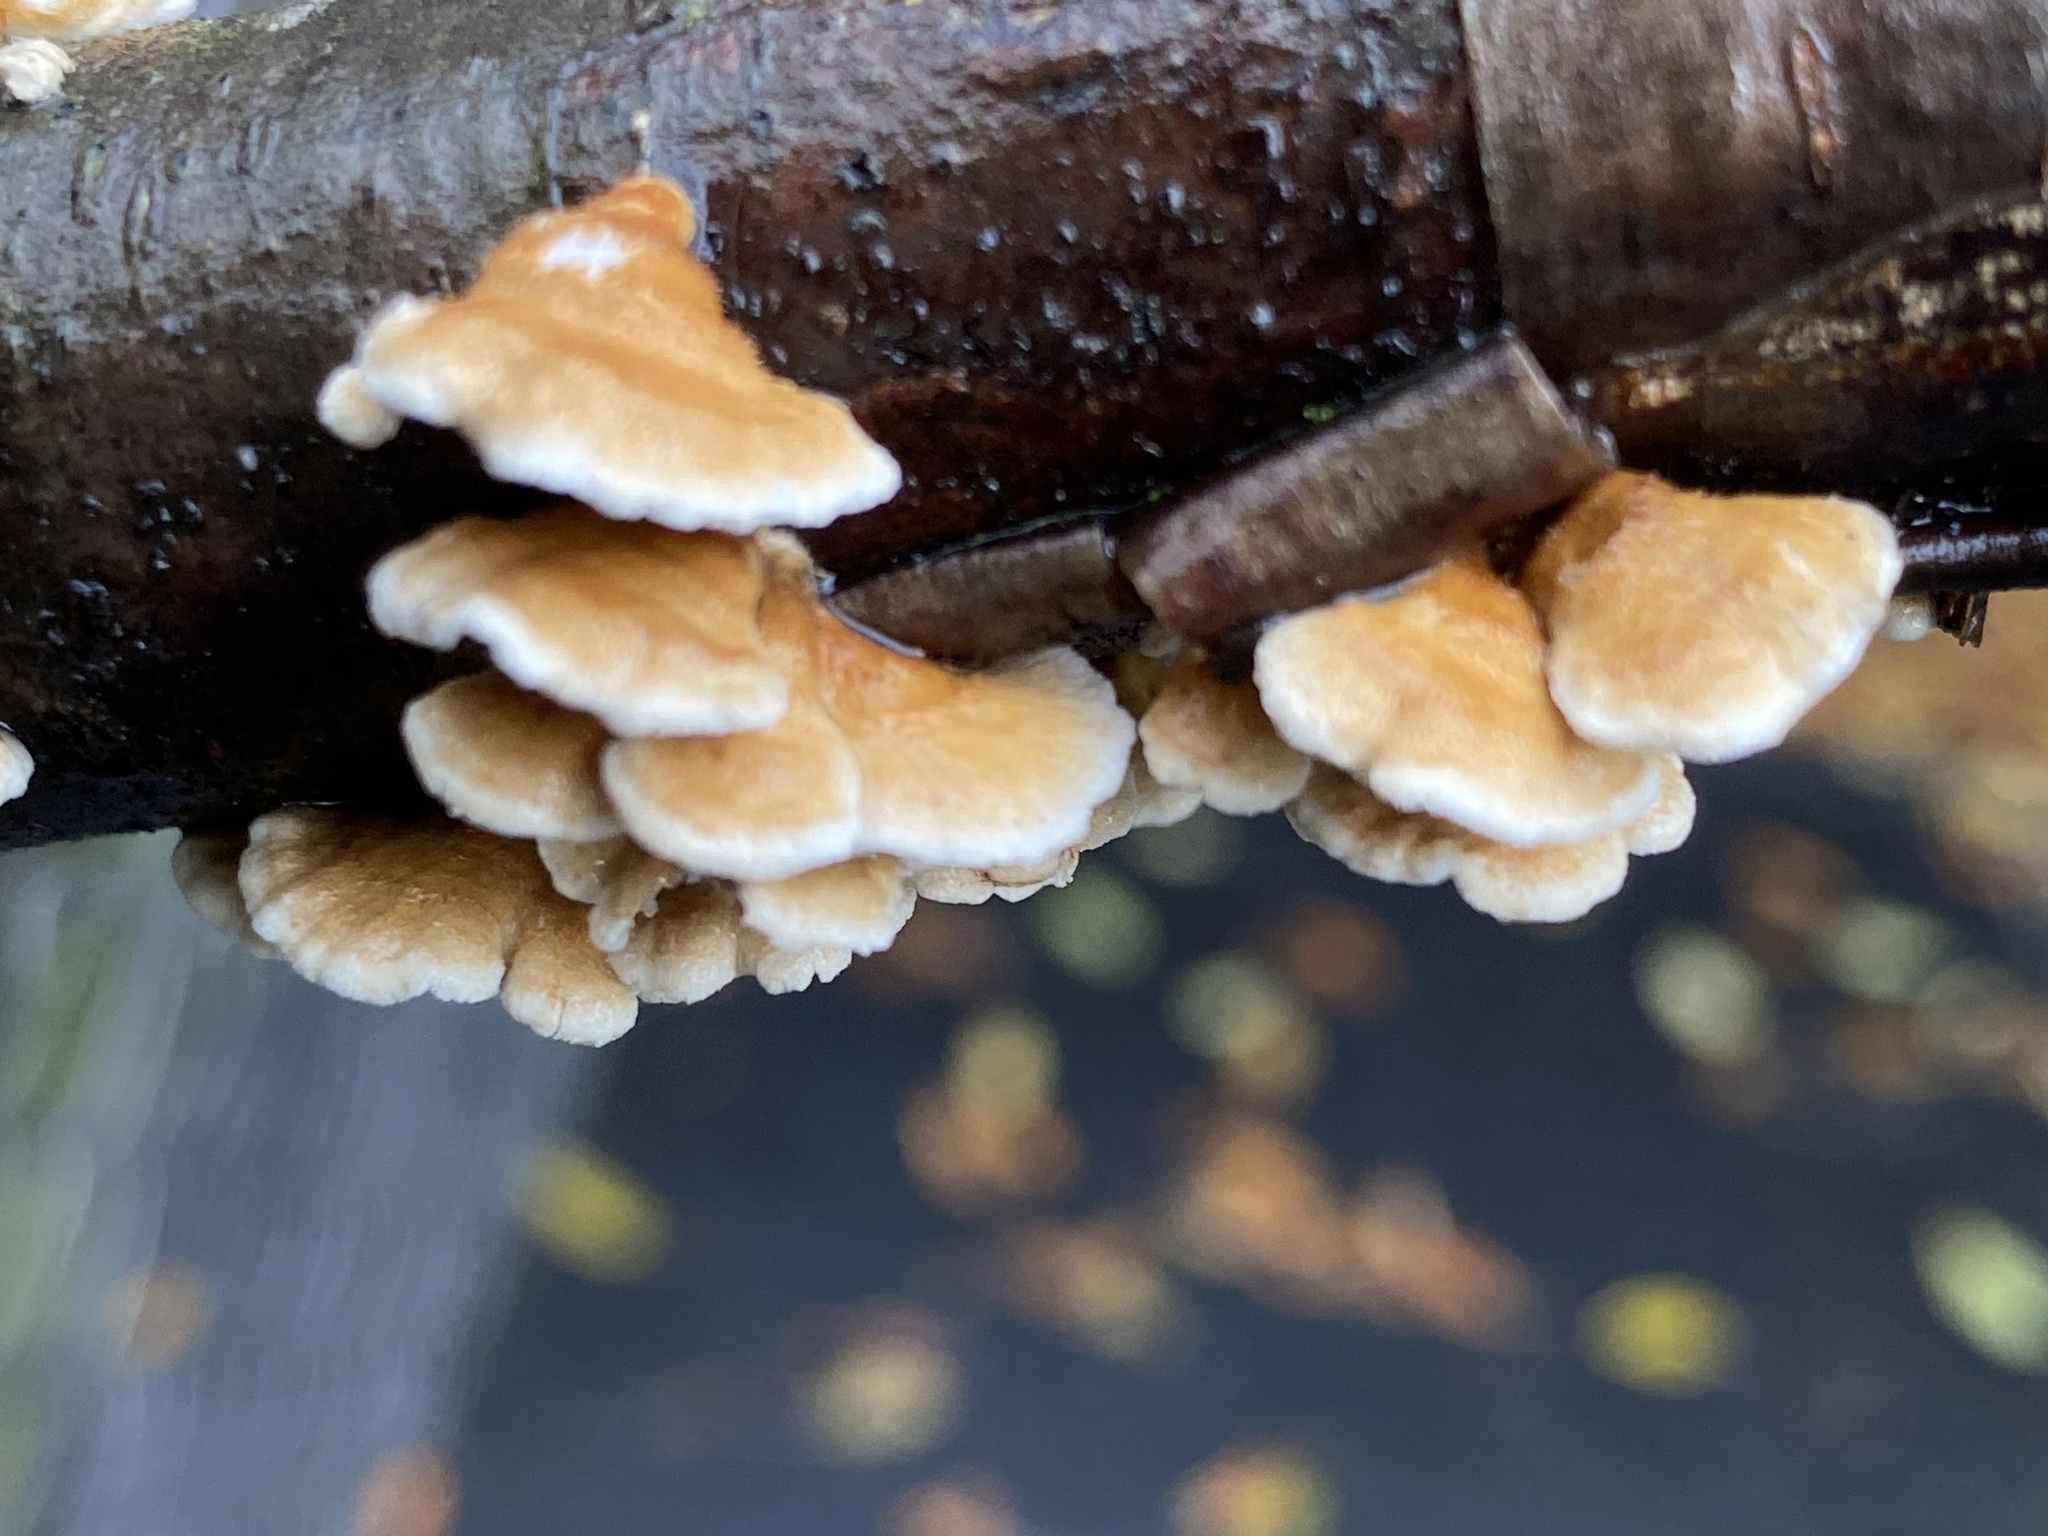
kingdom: Fungi
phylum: Basidiomycota
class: Agaricomycetes
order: Amylocorticiales
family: Amylocorticiaceae
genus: Plicaturopsis
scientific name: Plicaturopsis crispa
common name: Crimped gill
